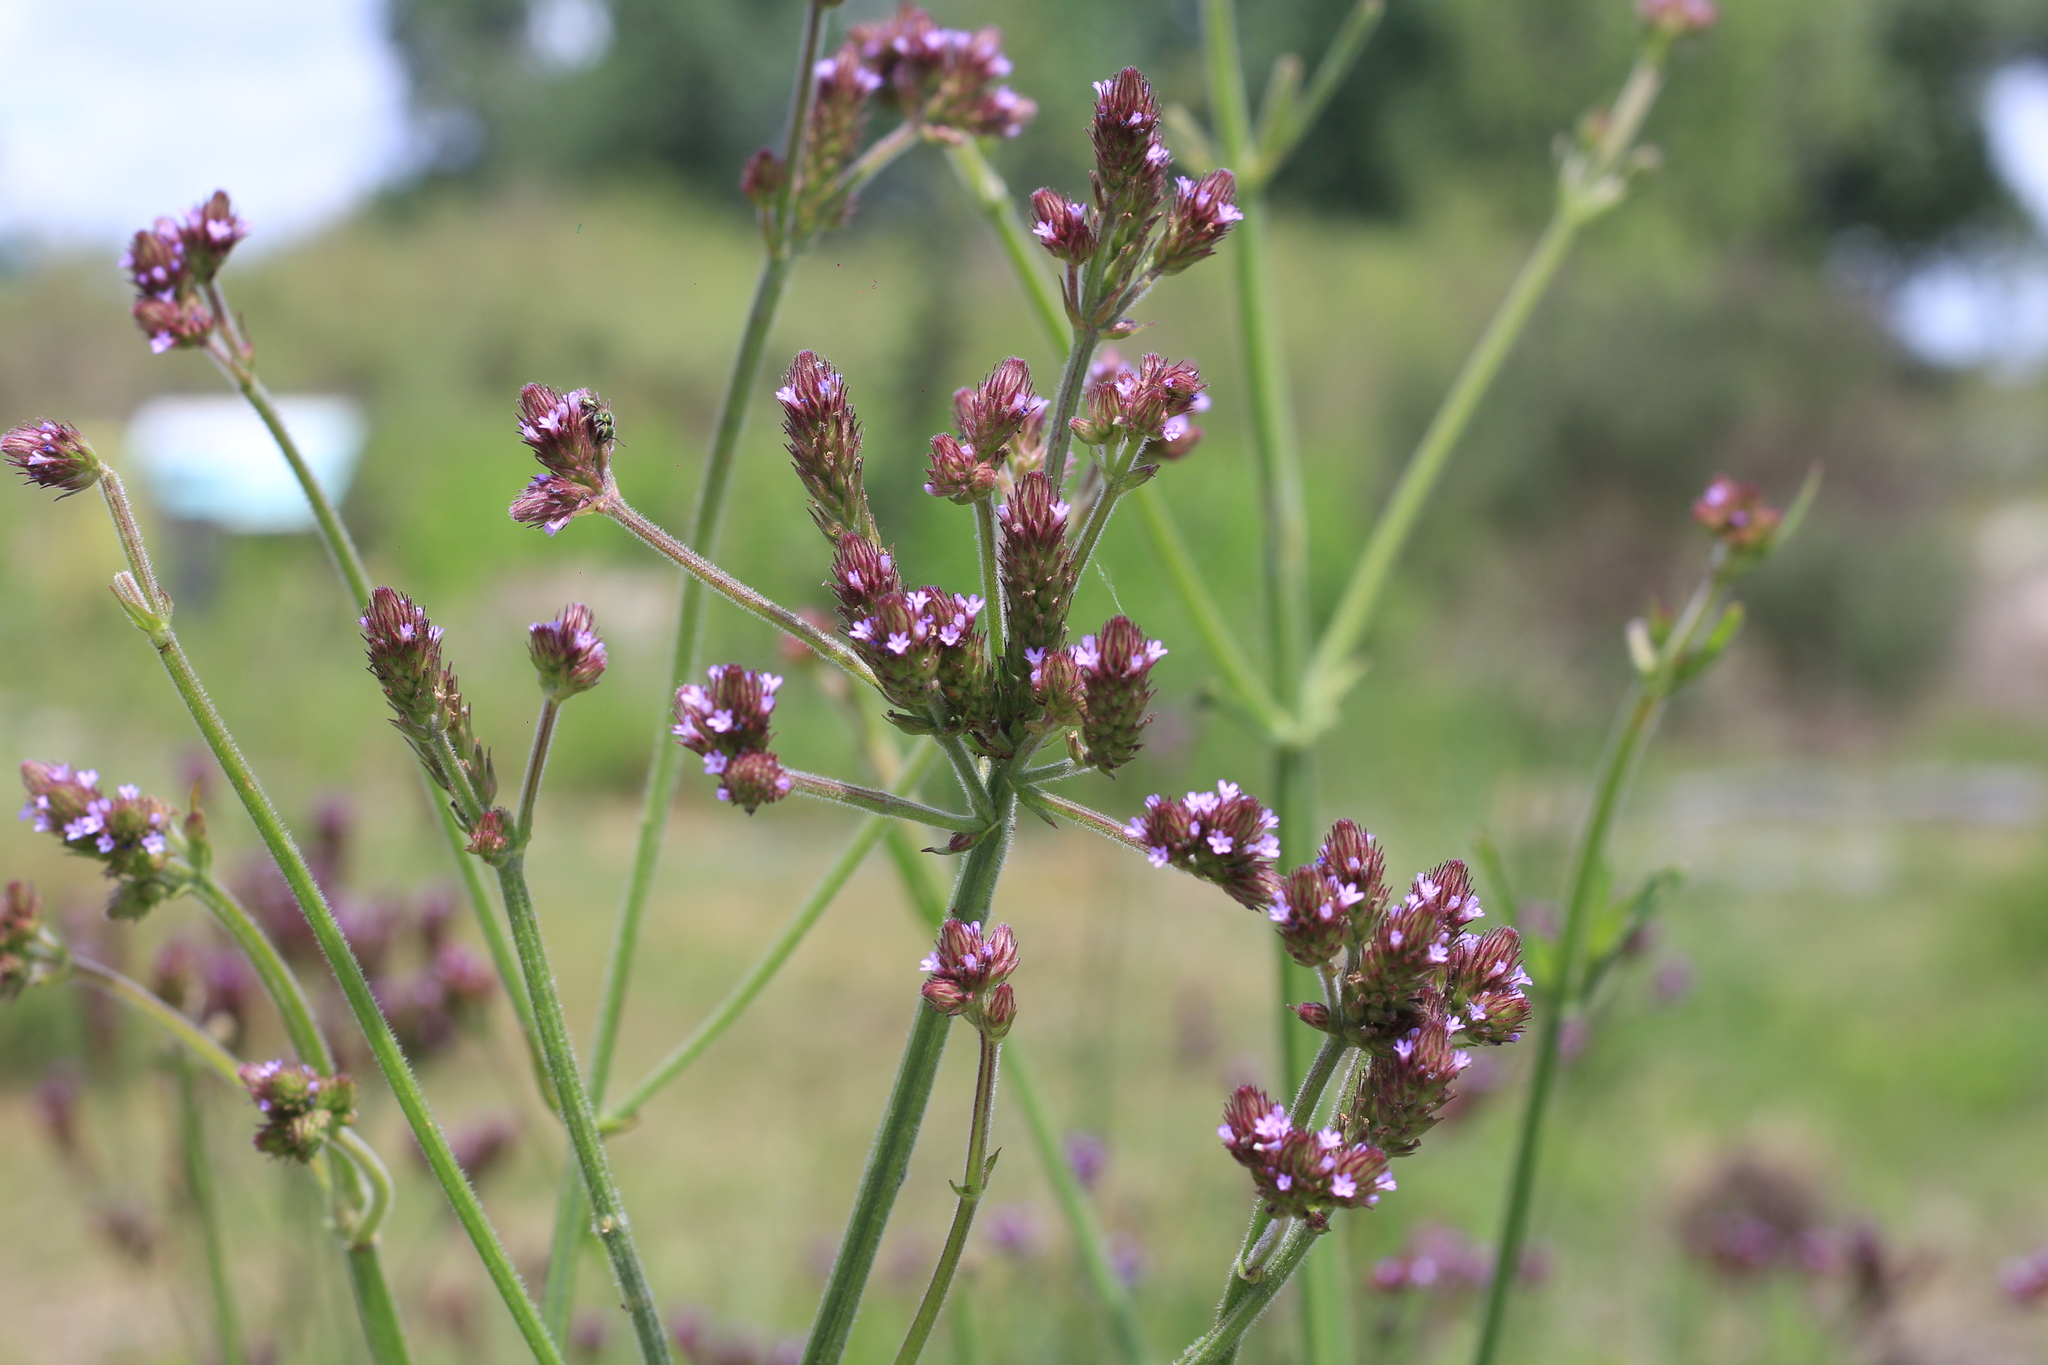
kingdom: Plantae
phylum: Tracheophyta
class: Magnoliopsida
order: Lamiales
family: Verbenaceae
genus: Verbena
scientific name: Verbena bonariensis
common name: Purpletop vervain
